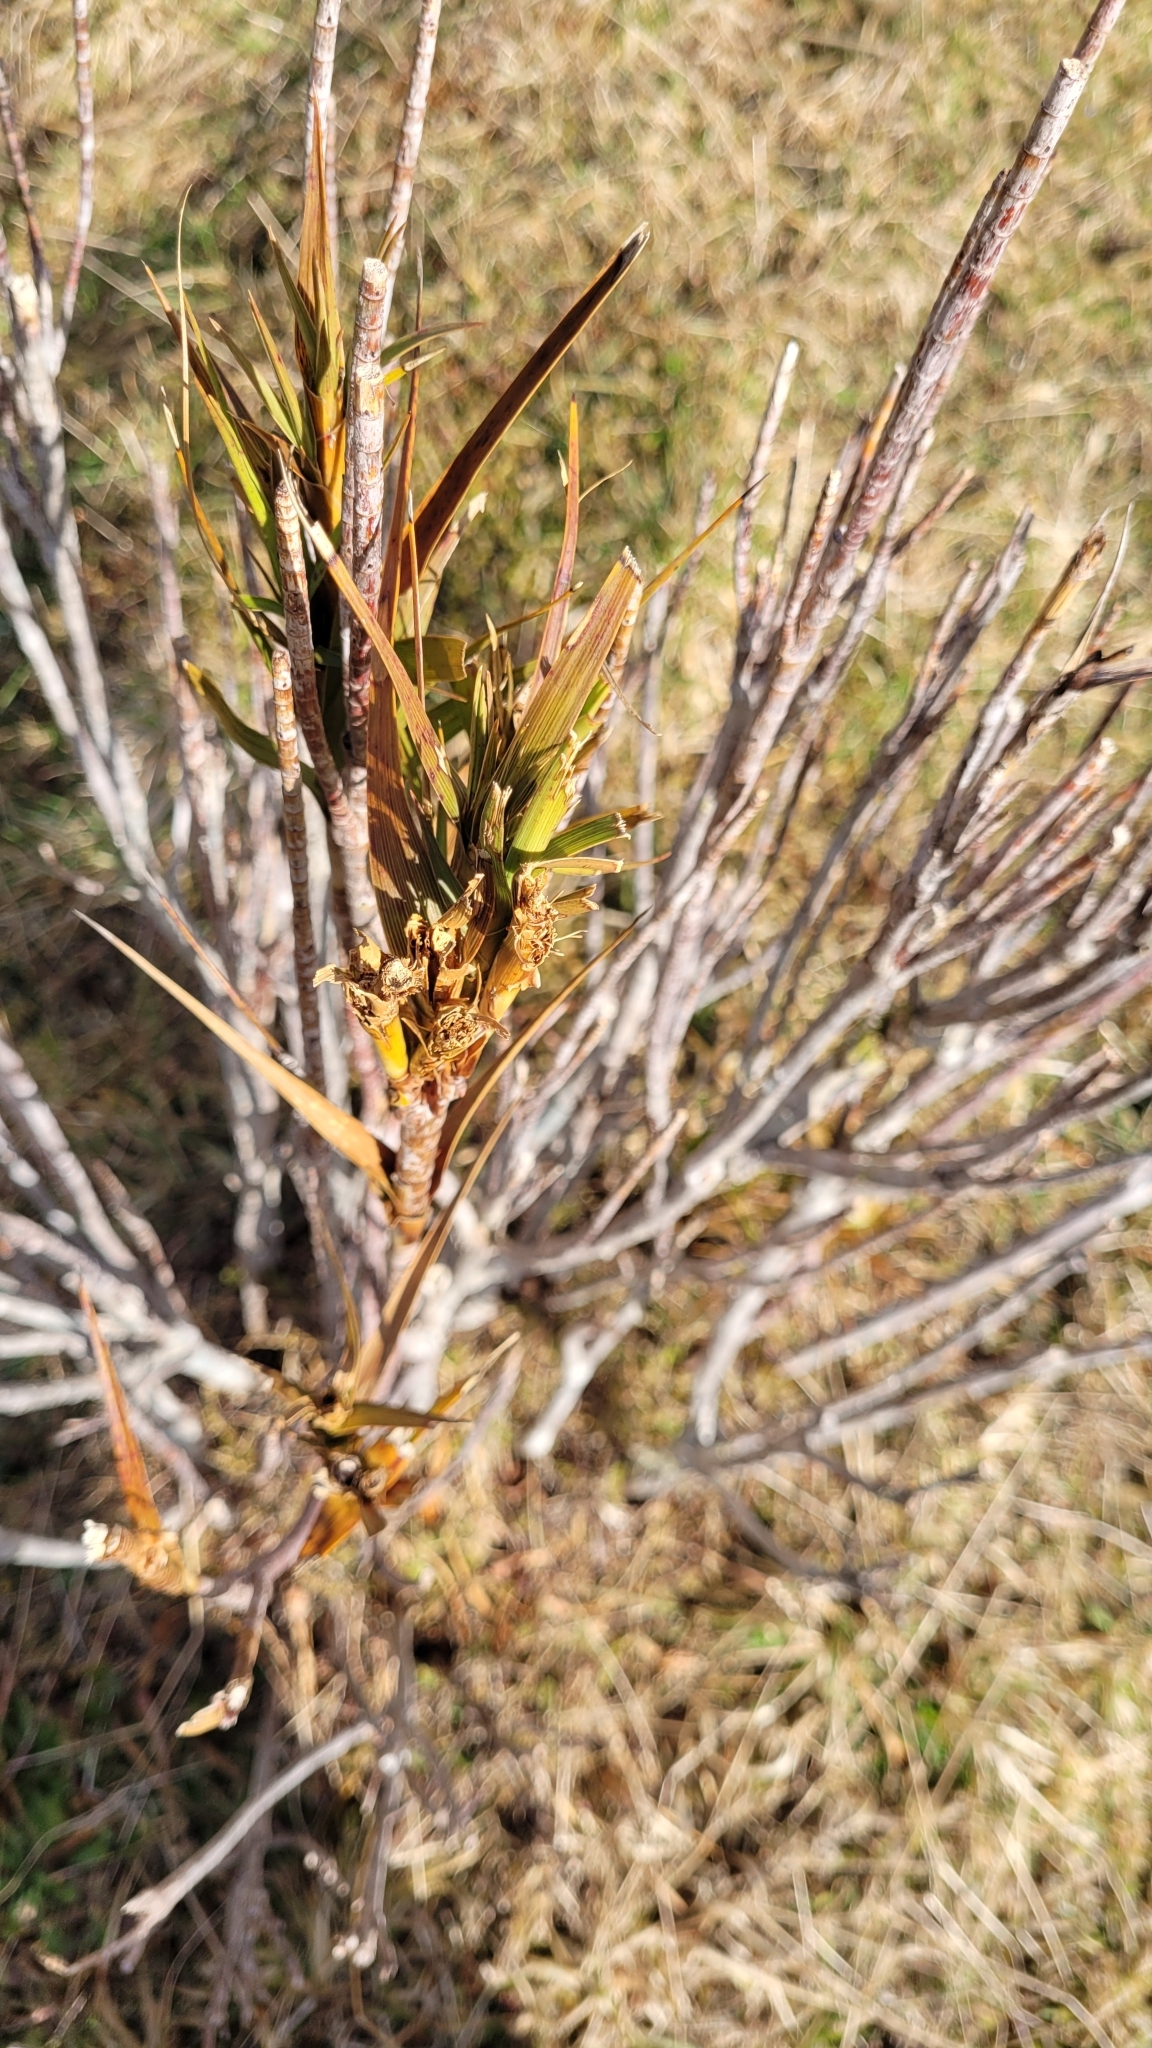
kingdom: Plantae
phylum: Tracheophyta
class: Magnoliopsida
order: Ericales
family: Ericaceae
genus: Dracophyllum
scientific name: Dracophyllum longifolium
